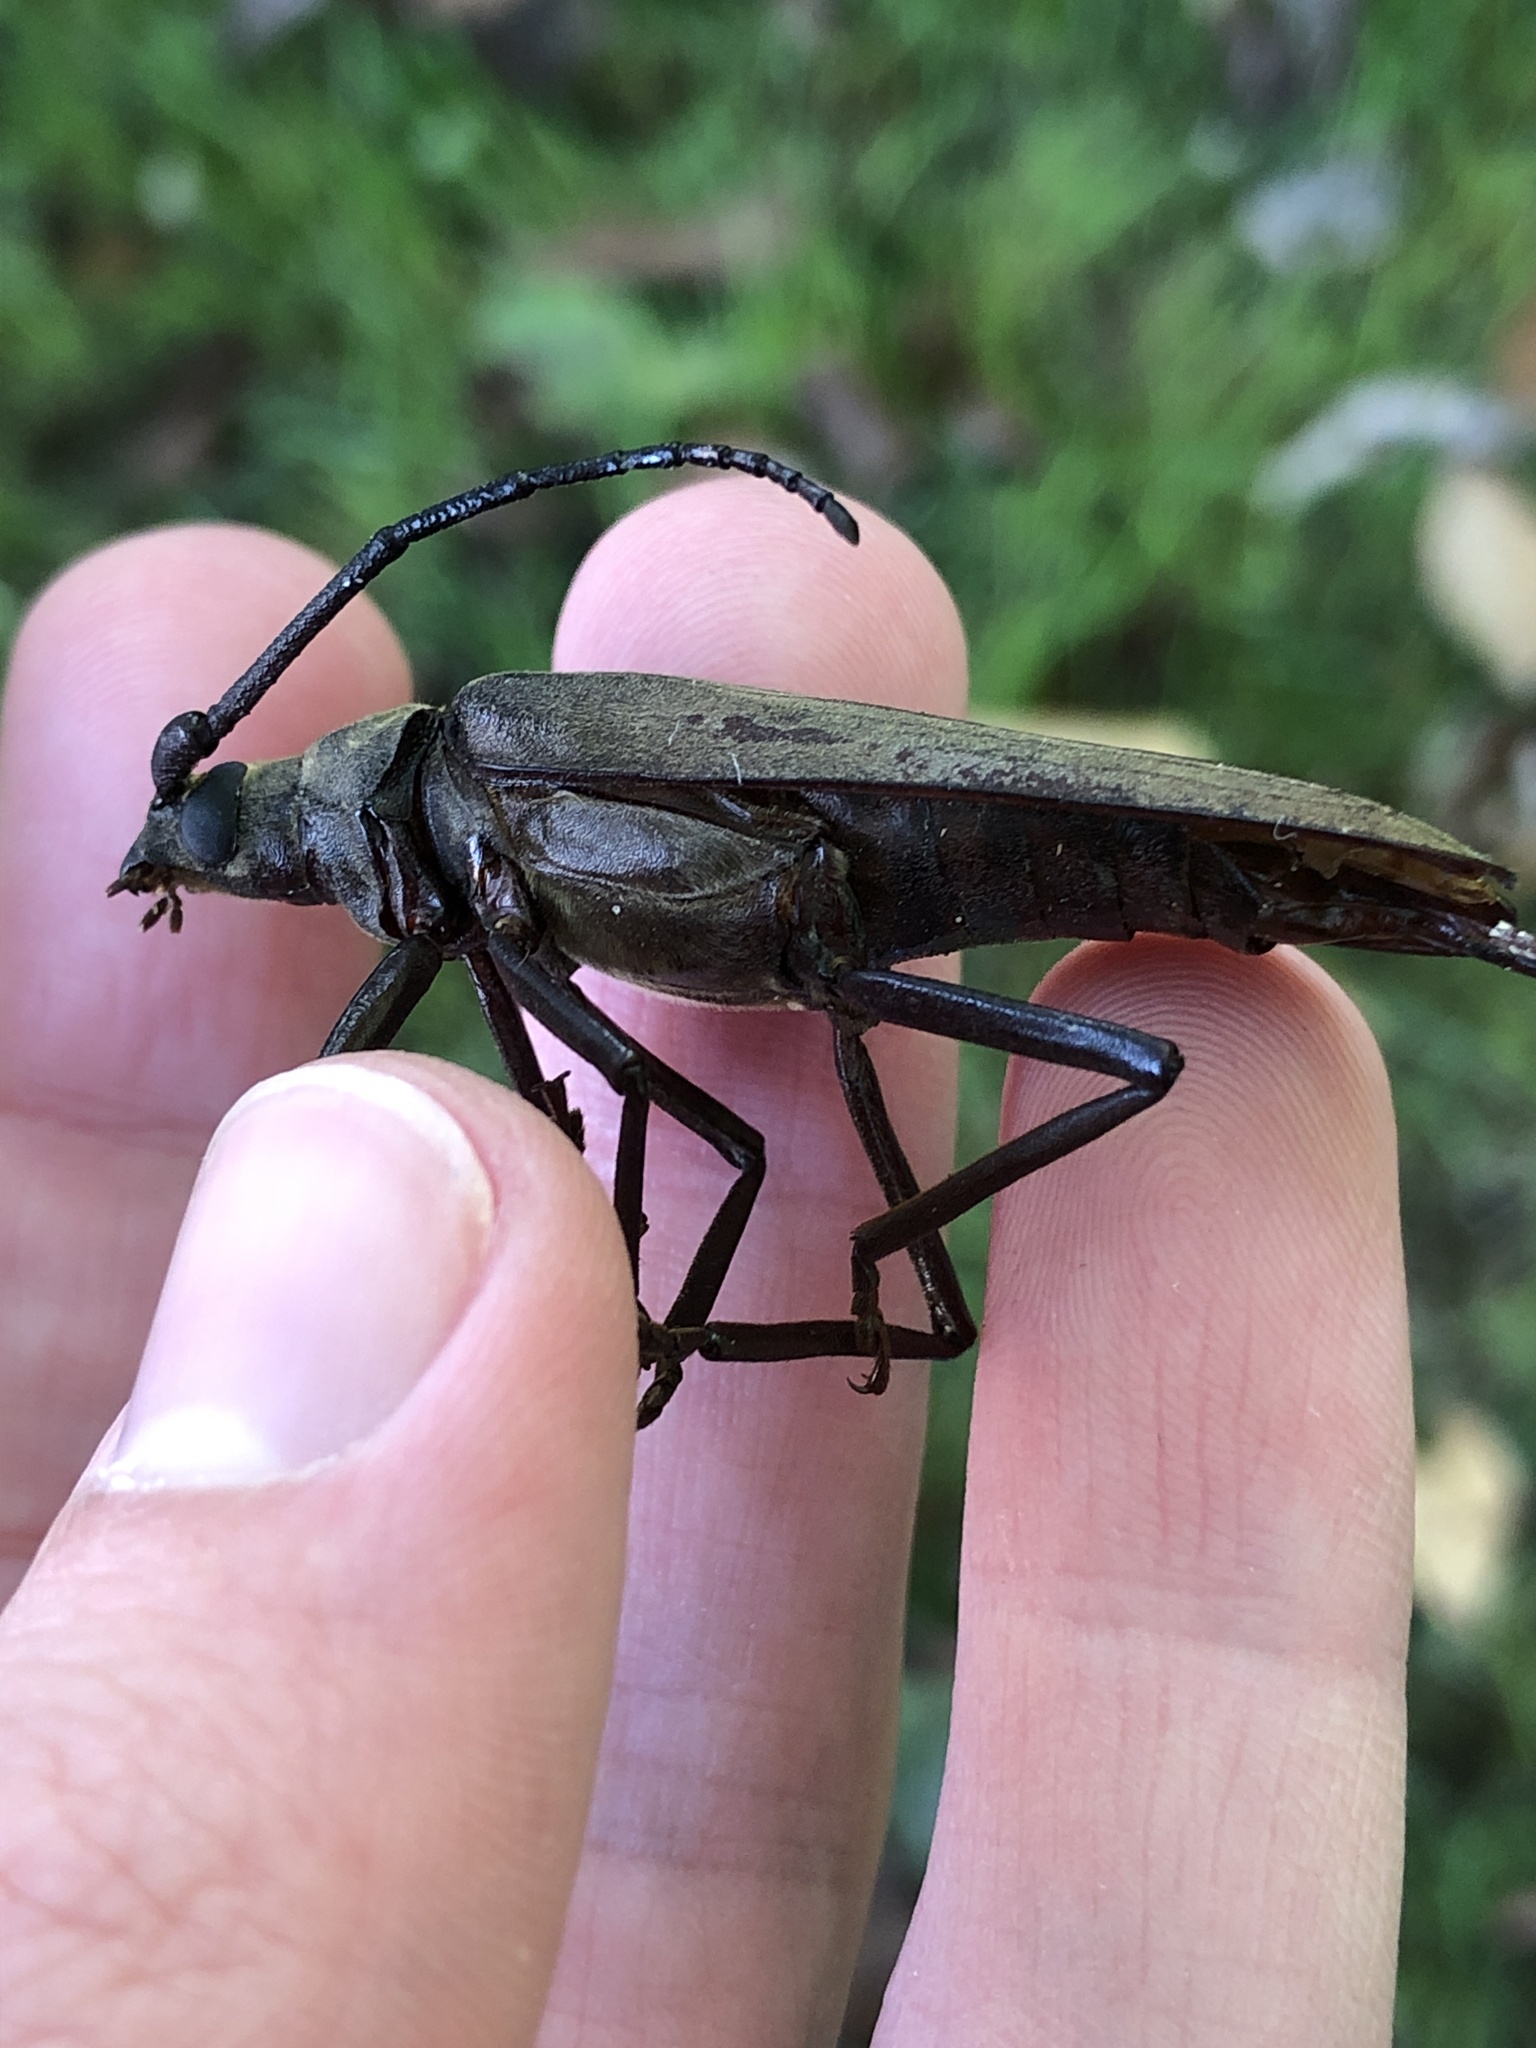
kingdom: Animalia
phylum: Arthropoda
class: Insecta
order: Coleoptera
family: Cerambycidae
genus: Aegosoma
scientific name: Aegosoma scabricorne
